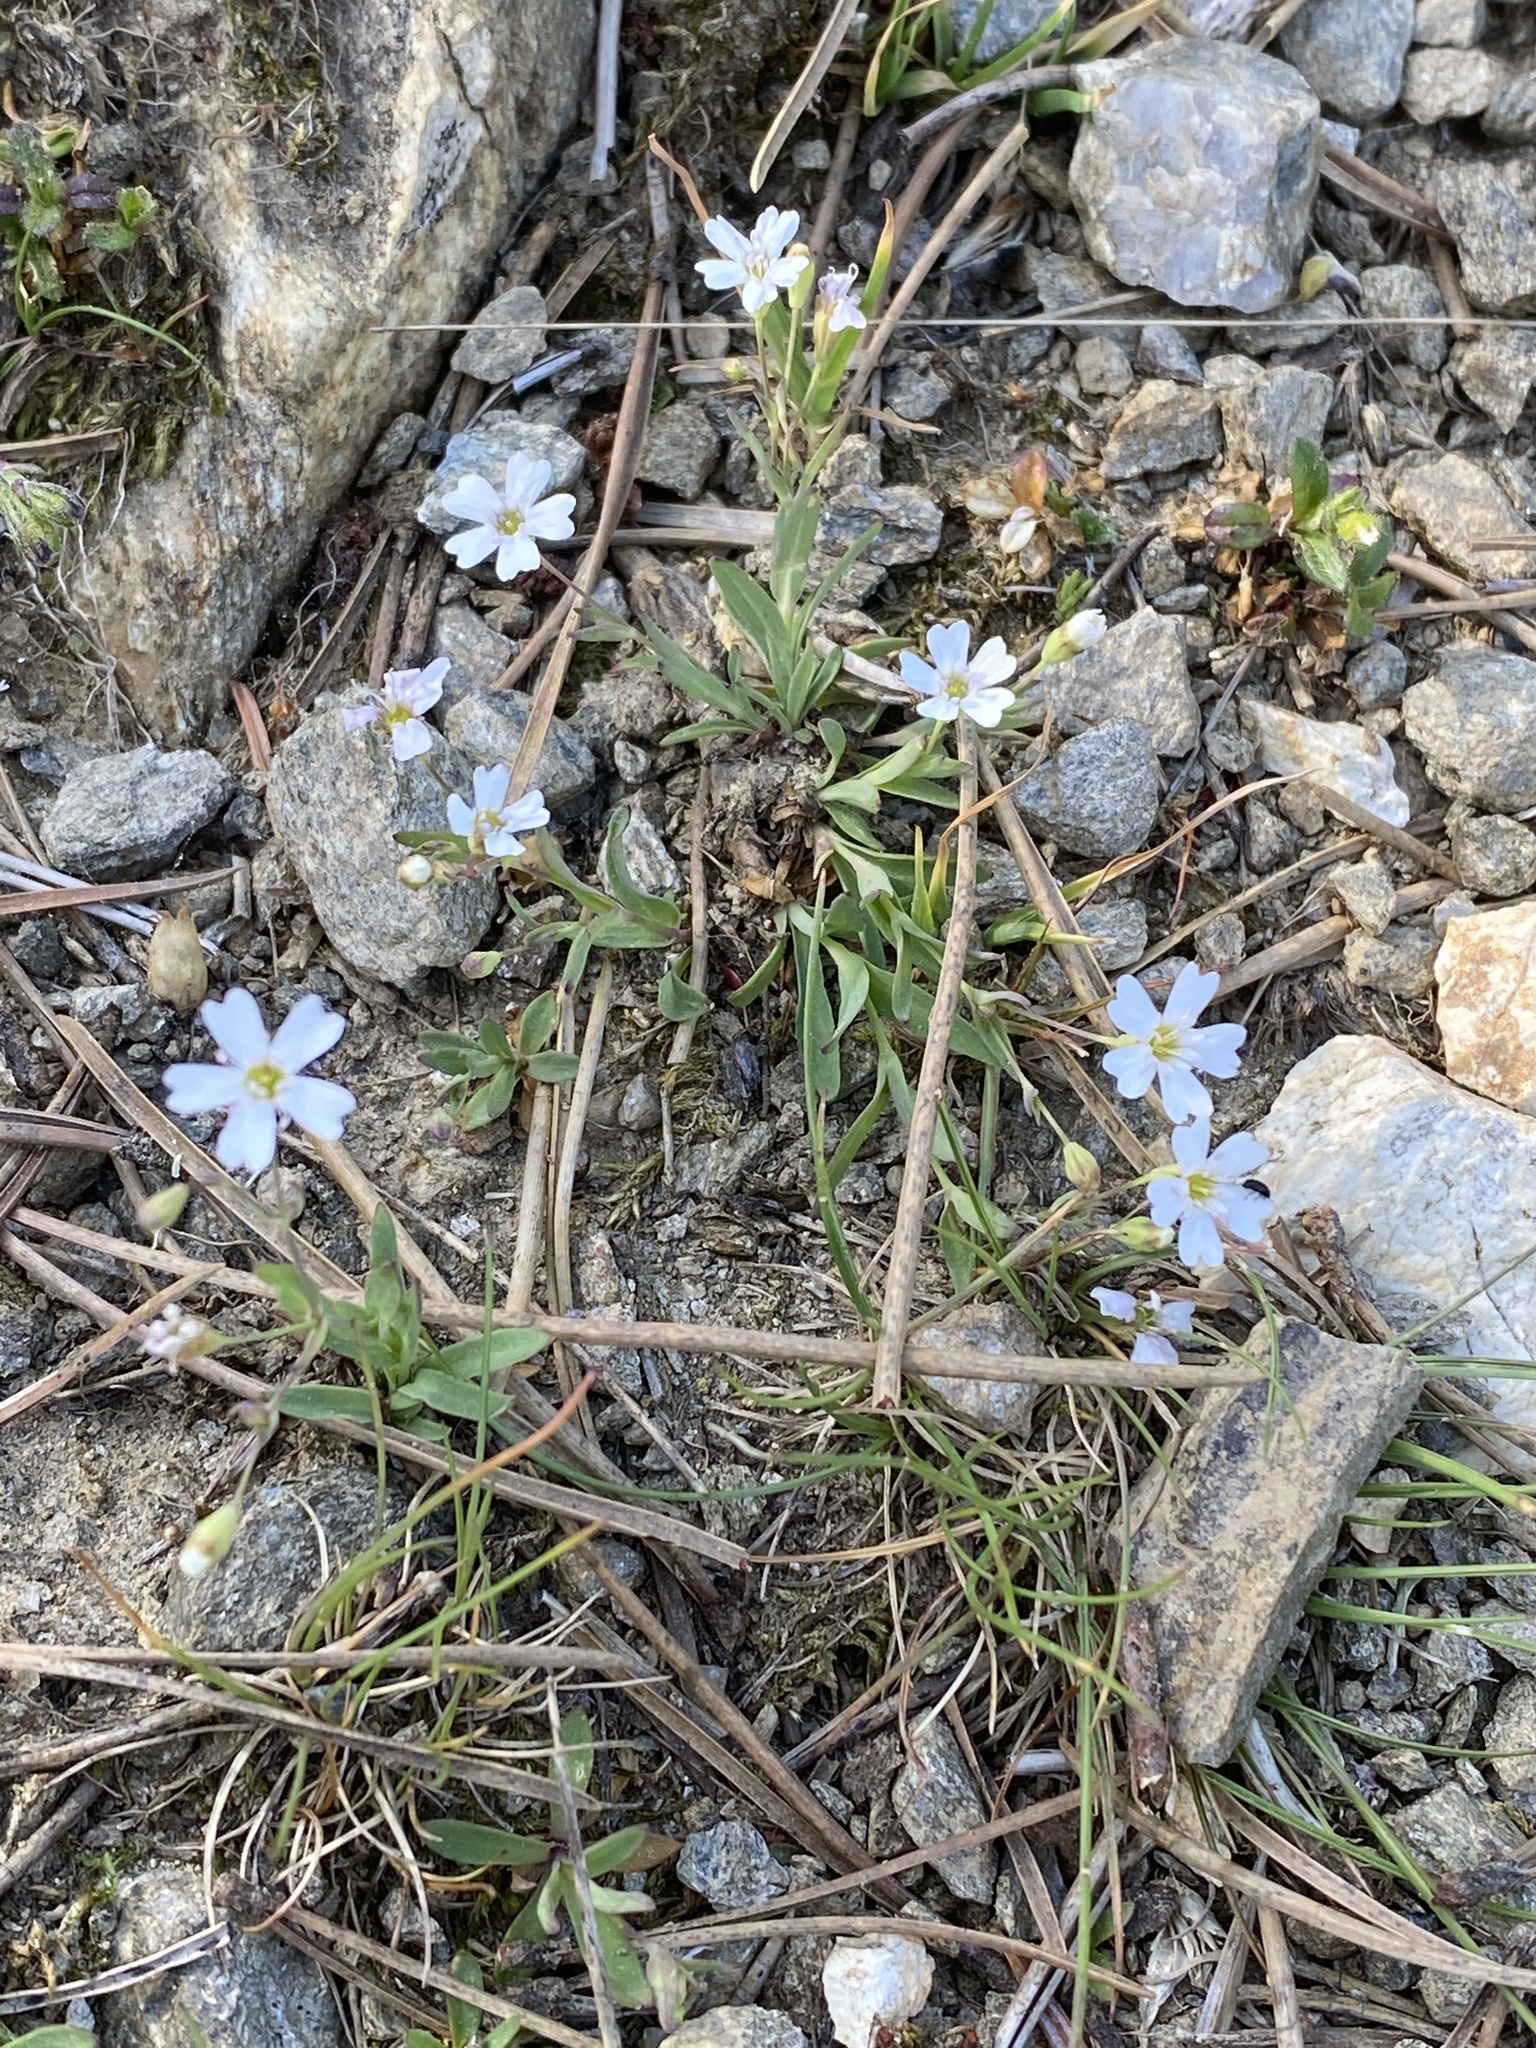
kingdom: Plantae
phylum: Tracheophyta
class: Magnoliopsida
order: Caryophyllales
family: Caryophyllaceae
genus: Atocion
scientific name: Atocion rupestre
